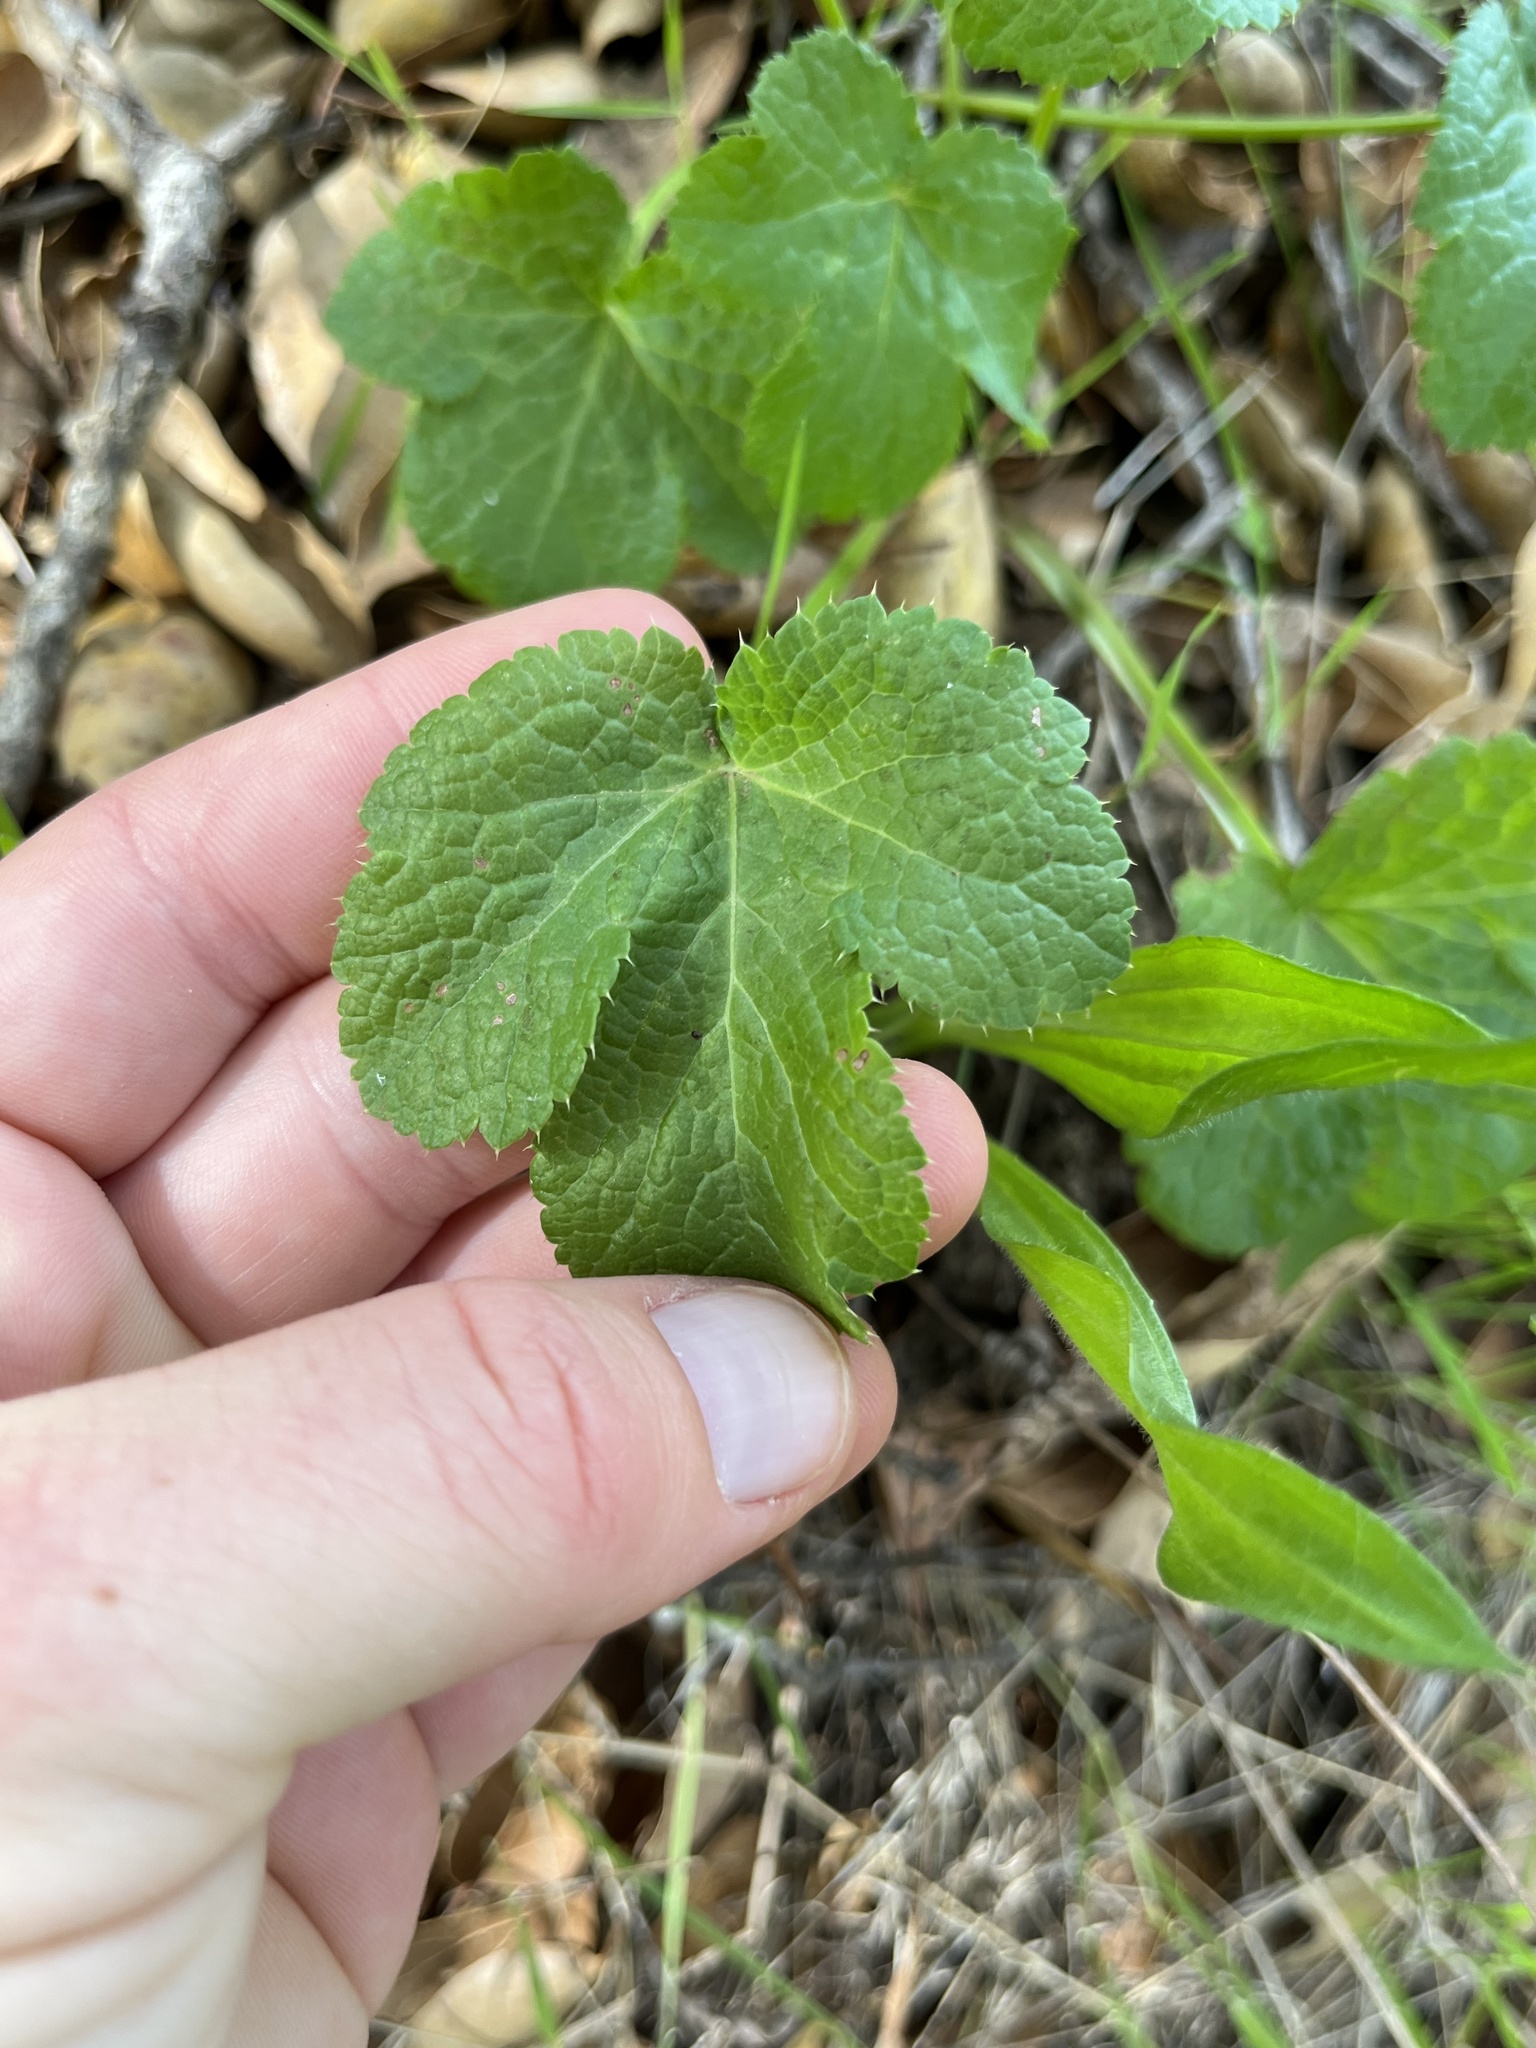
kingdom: Plantae
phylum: Tracheophyta
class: Magnoliopsida
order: Apiales
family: Apiaceae
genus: Sanicula
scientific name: Sanicula crassicaulis
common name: Western snakeroot
